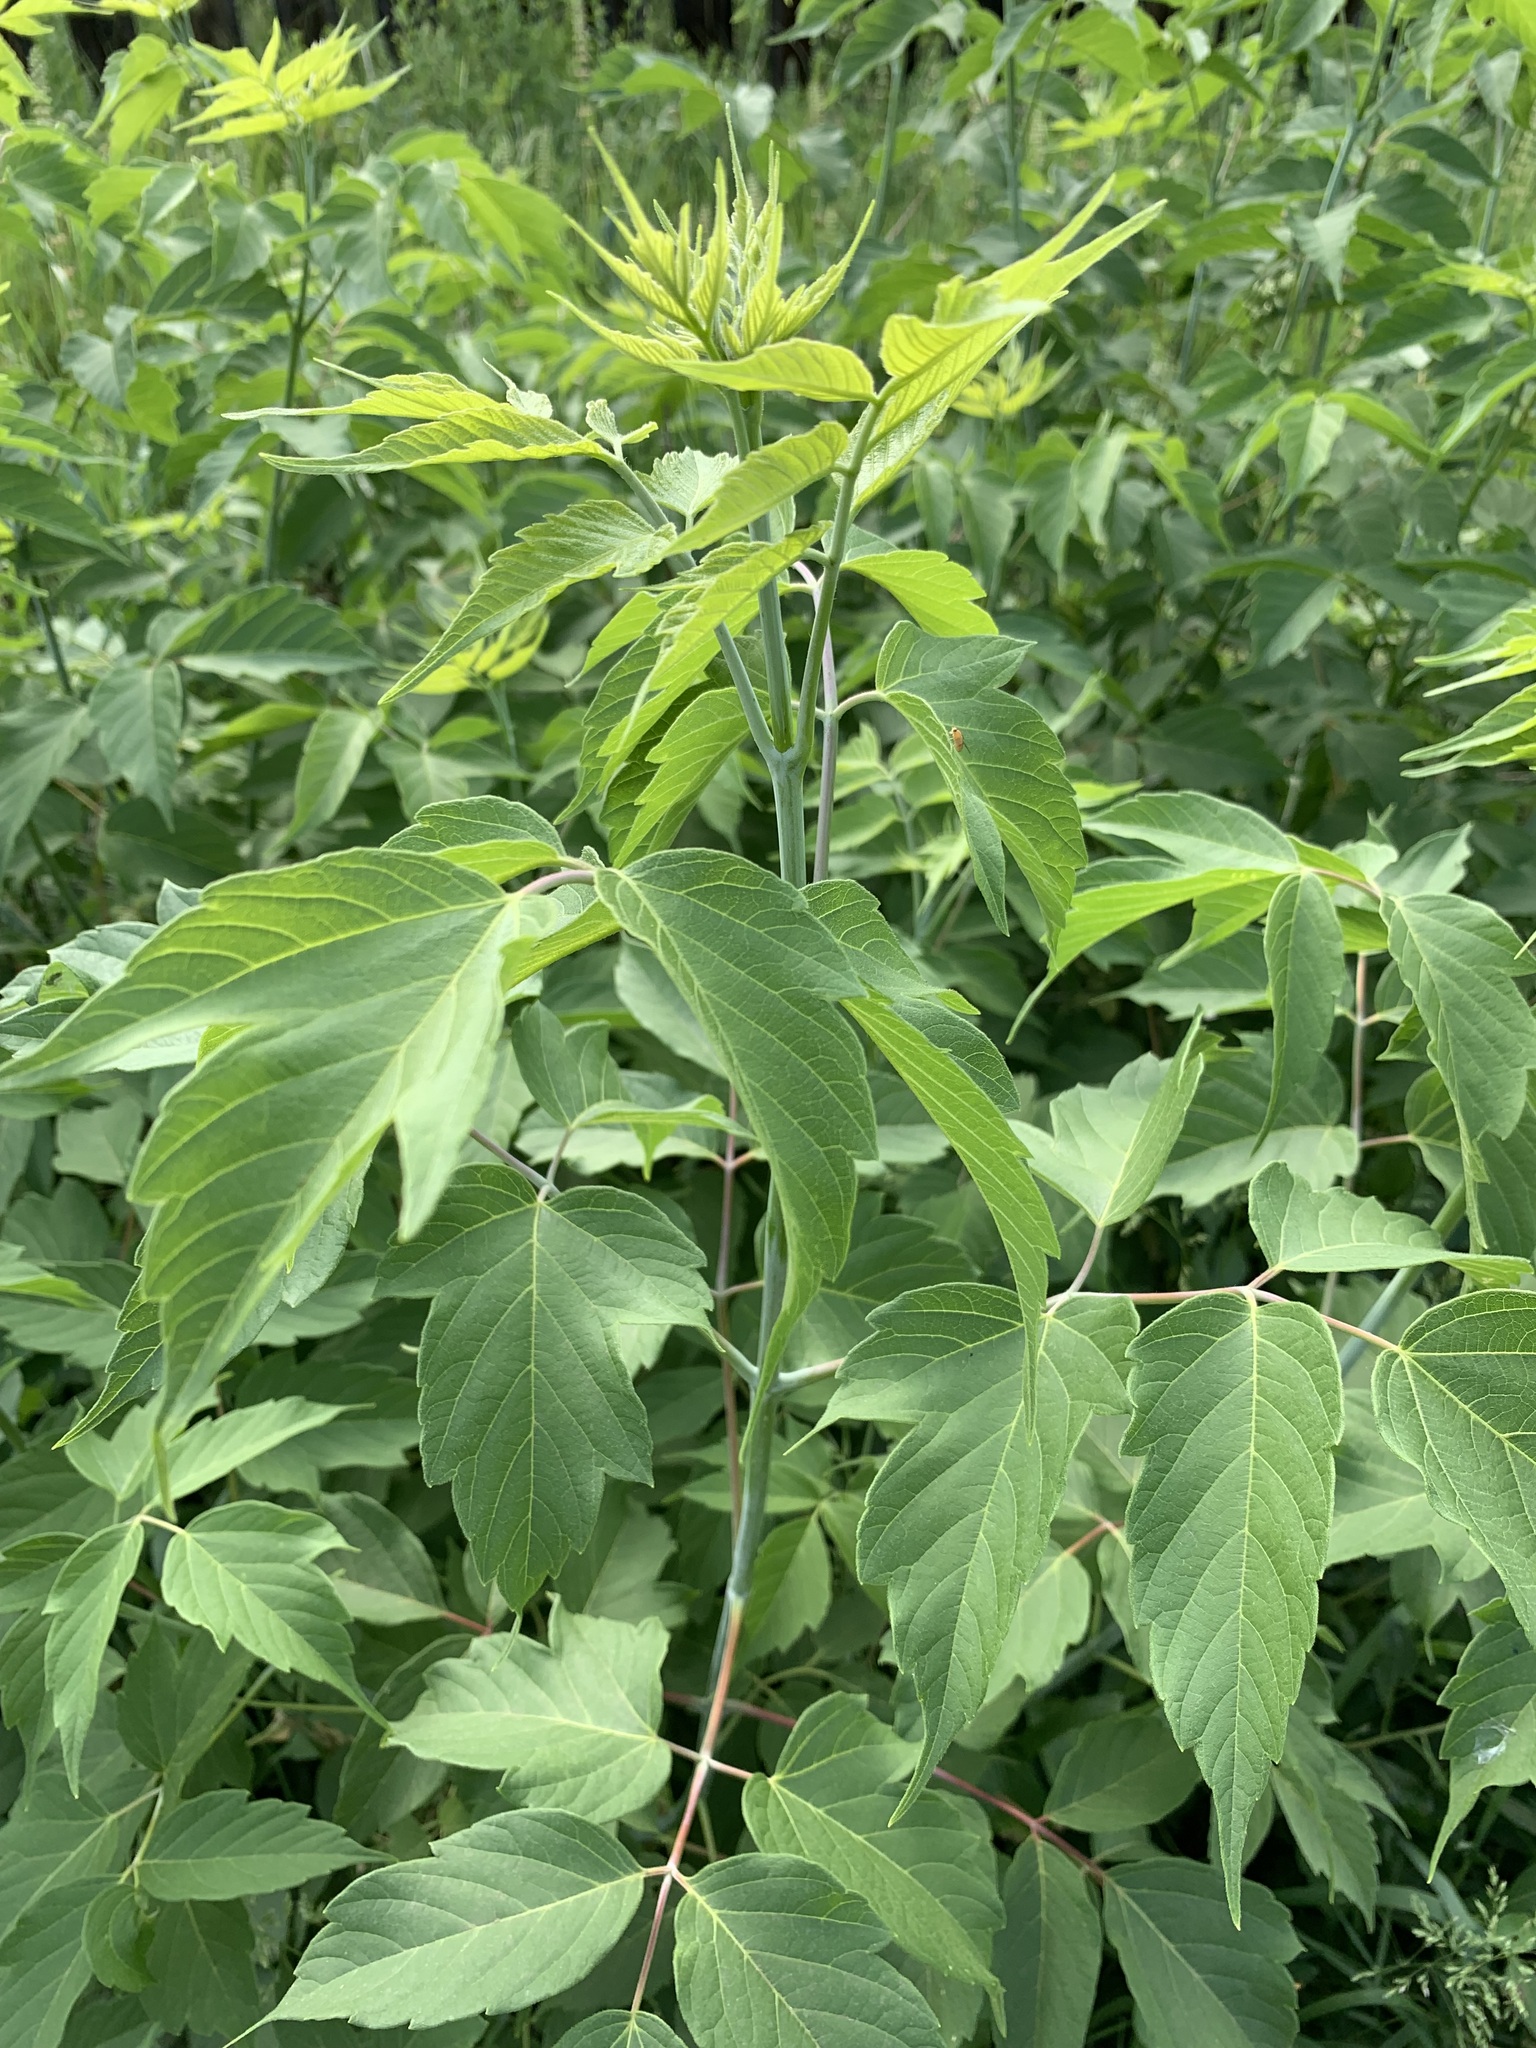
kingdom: Plantae
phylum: Tracheophyta
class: Magnoliopsida
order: Sapindales
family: Sapindaceae
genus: Acer
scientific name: Acer negundo
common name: Ashleaf maple
